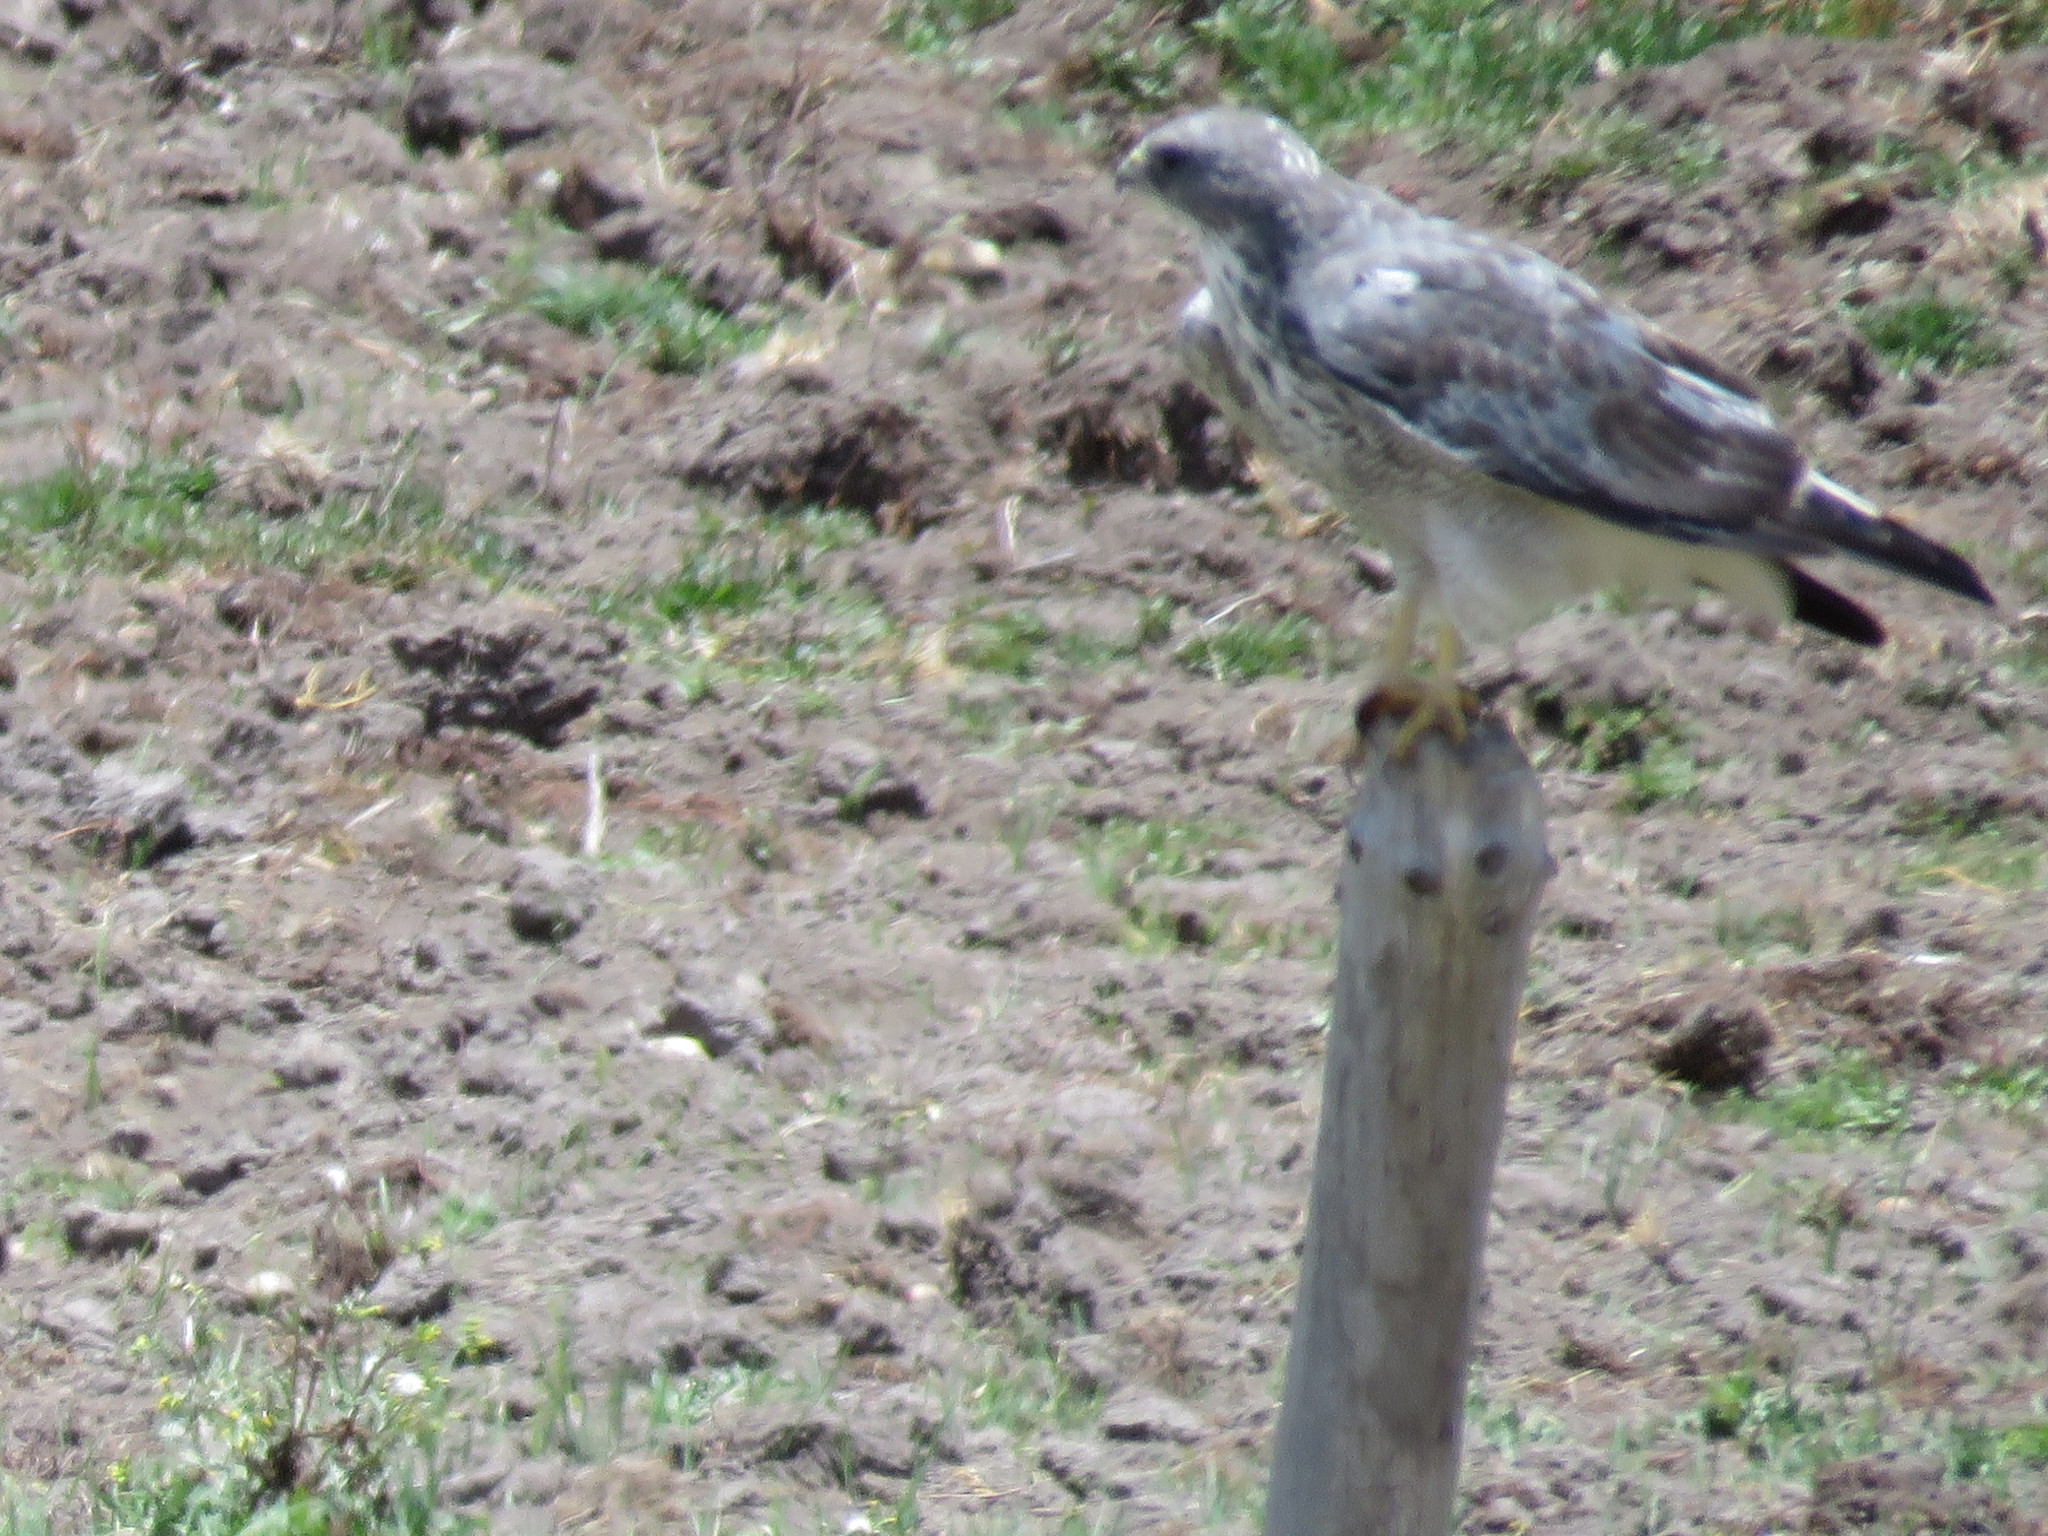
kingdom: Animalia
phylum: Chordata
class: Aves
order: Accipitriformes
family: Accipitridae
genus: Buteo
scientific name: Buteo polyosoma
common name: Variable hawk
